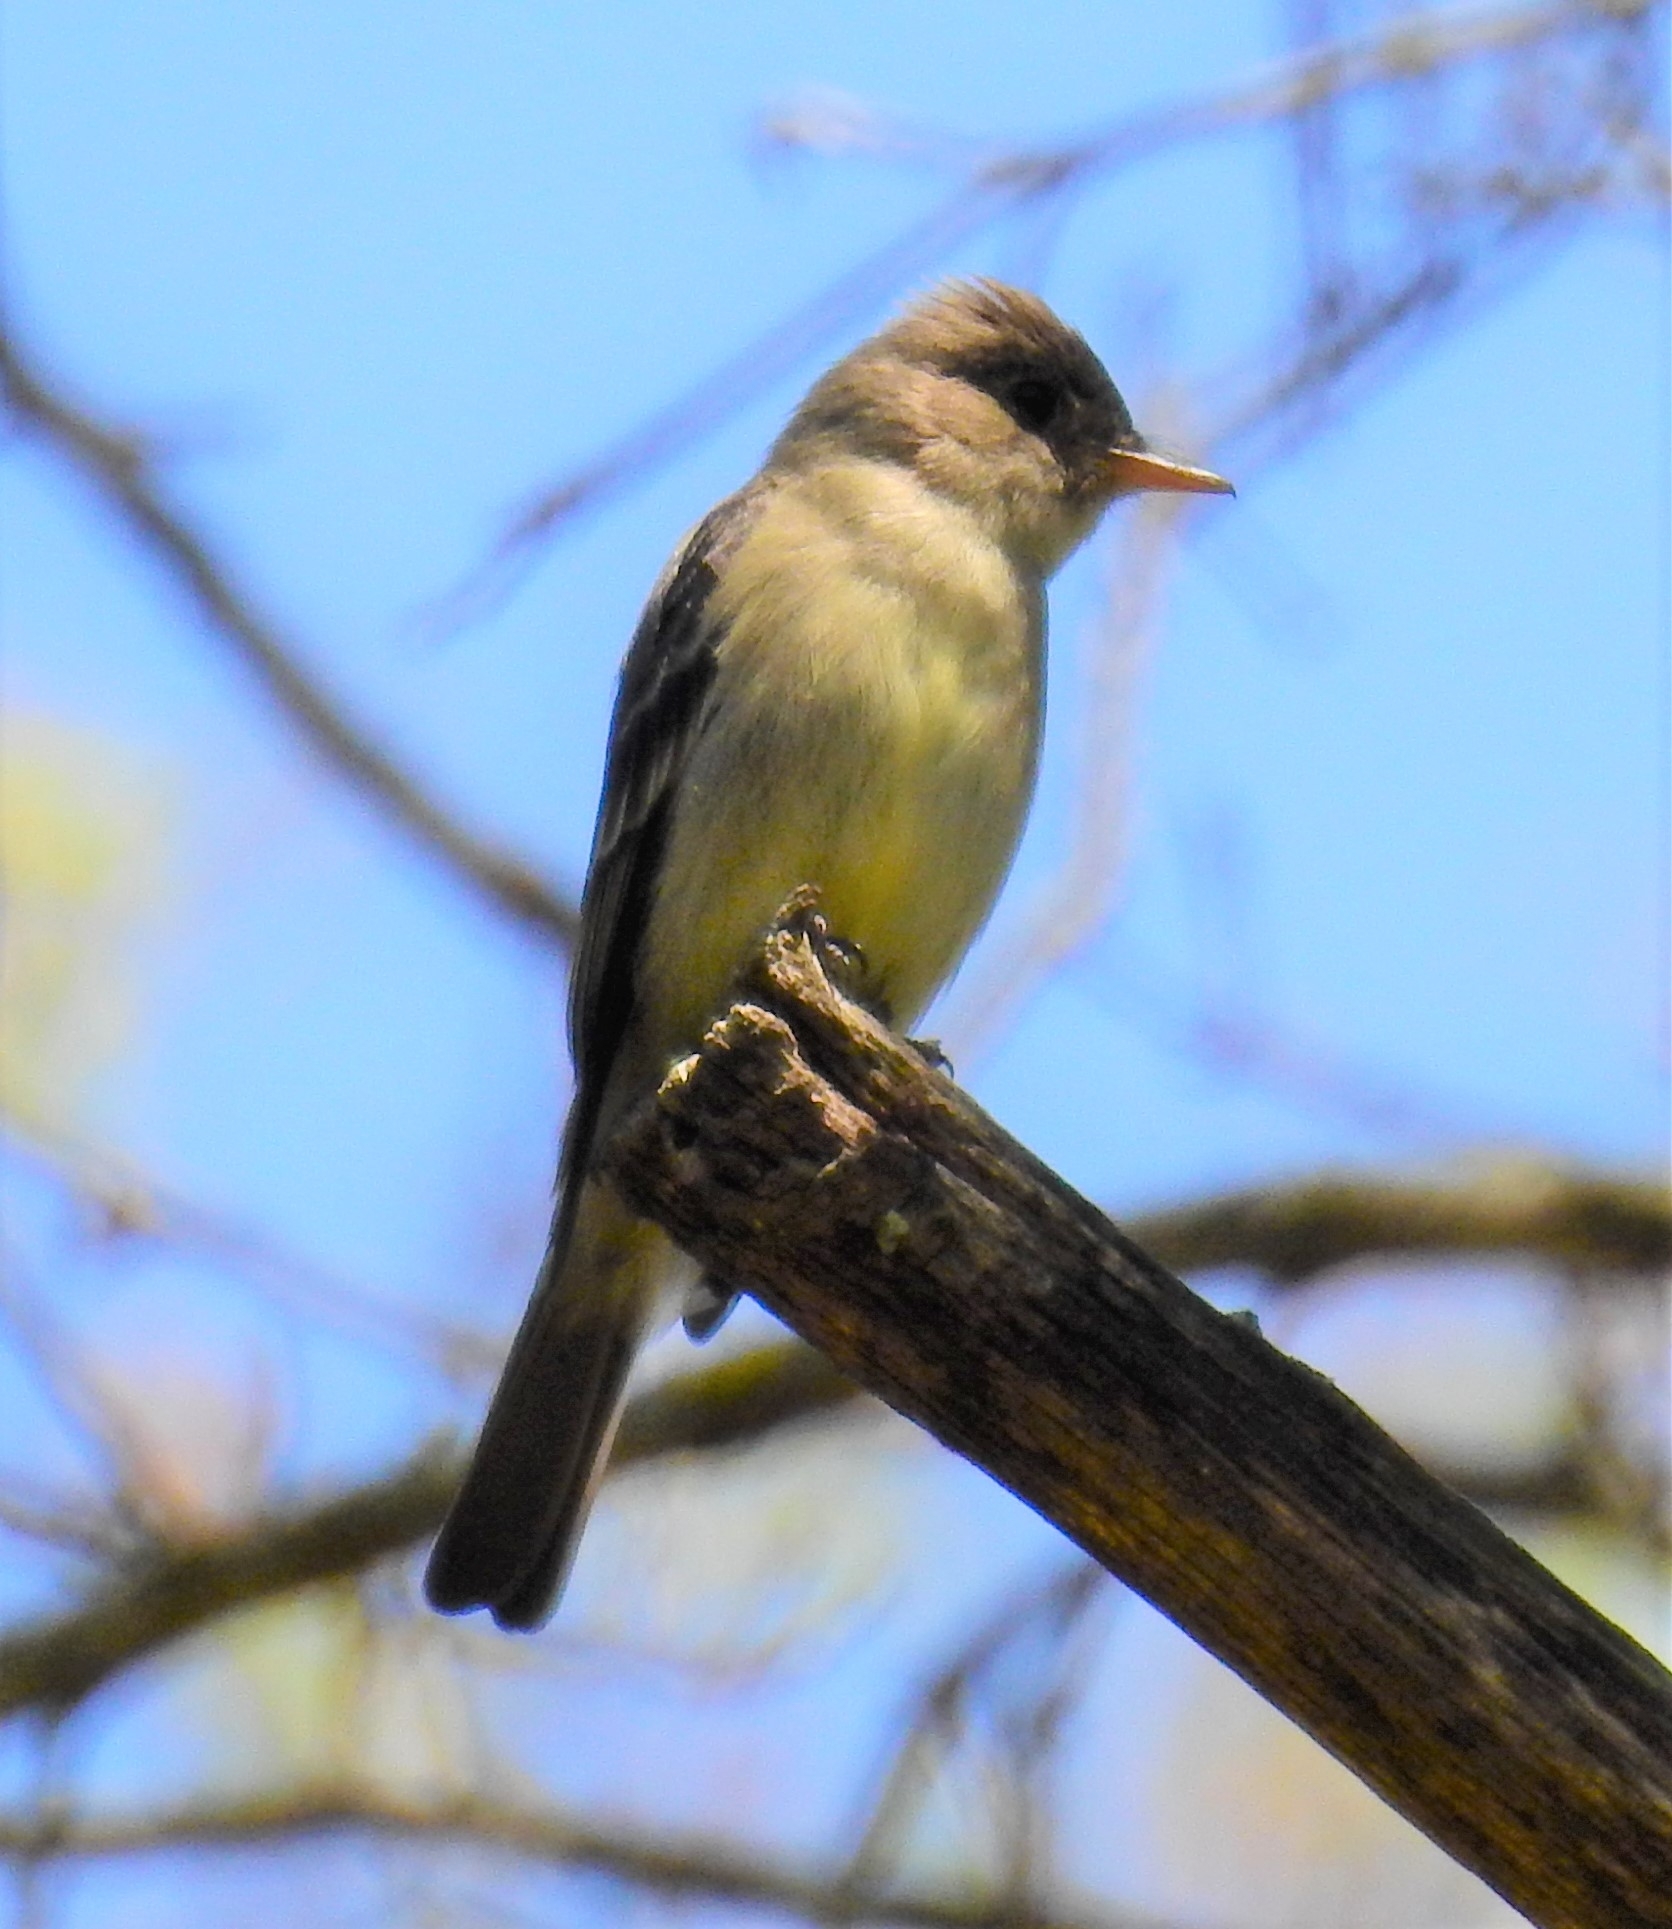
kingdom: Animalia
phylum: Chordata
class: Aves
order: Passeriformes
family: Tyrannidae
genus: Contopus
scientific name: Contopus virens
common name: Eastern wood-pewee
